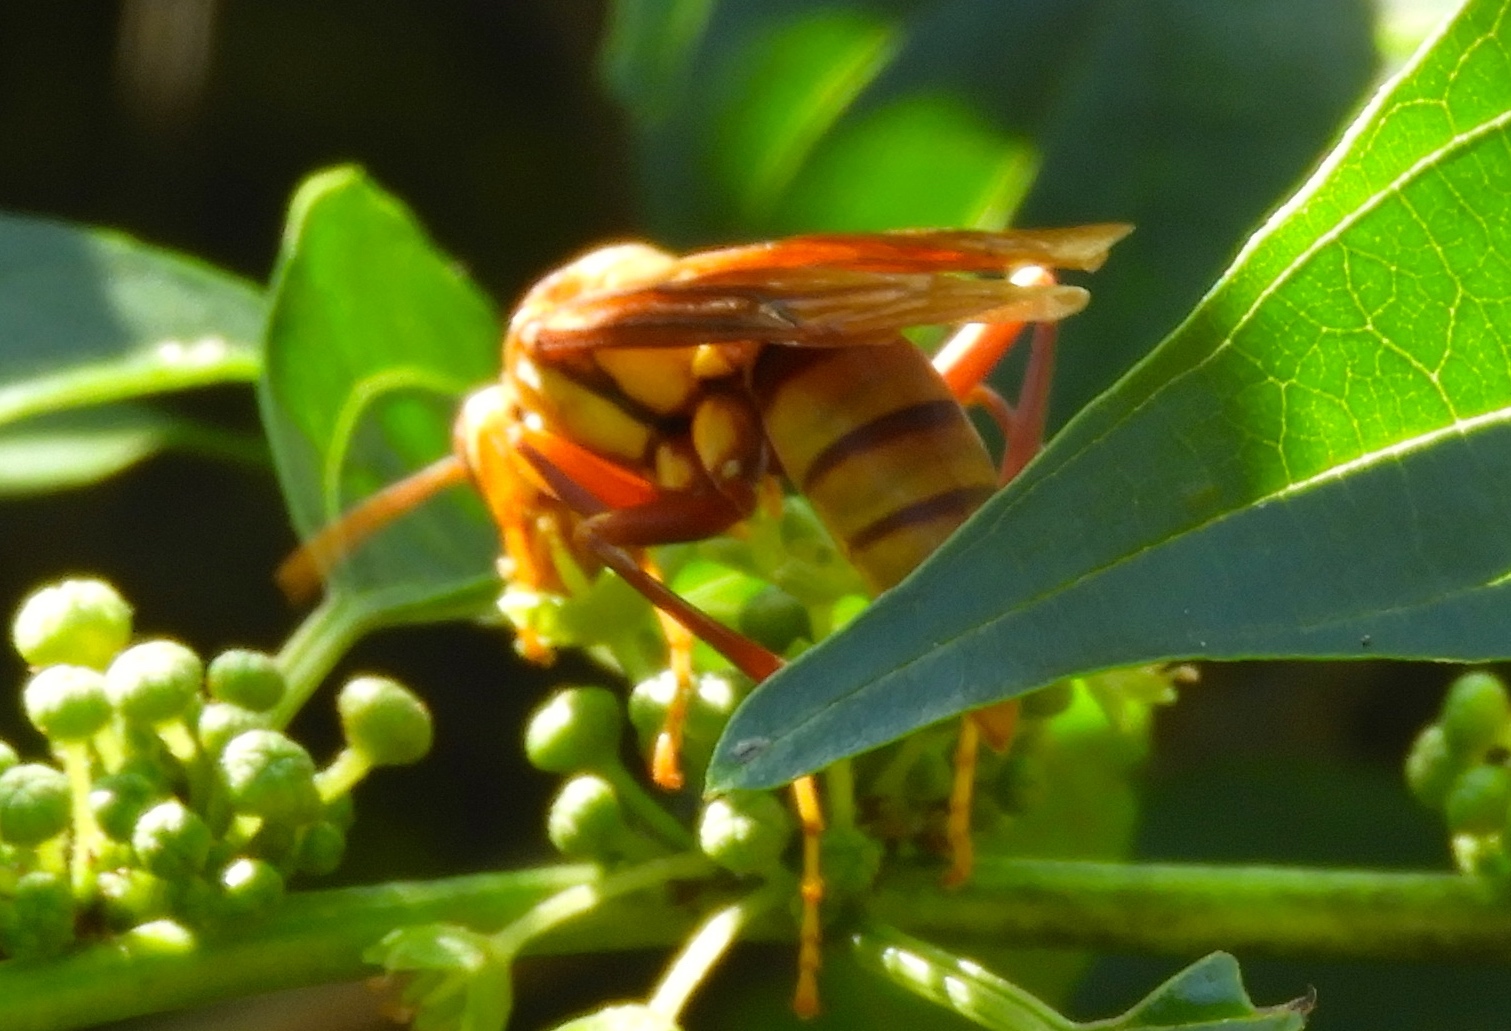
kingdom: Animalia
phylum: Arthropoda
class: Insecta
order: Hymenoptera
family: Eumenidae
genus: Polistes
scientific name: Polistes carnifex
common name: Paper wasp
